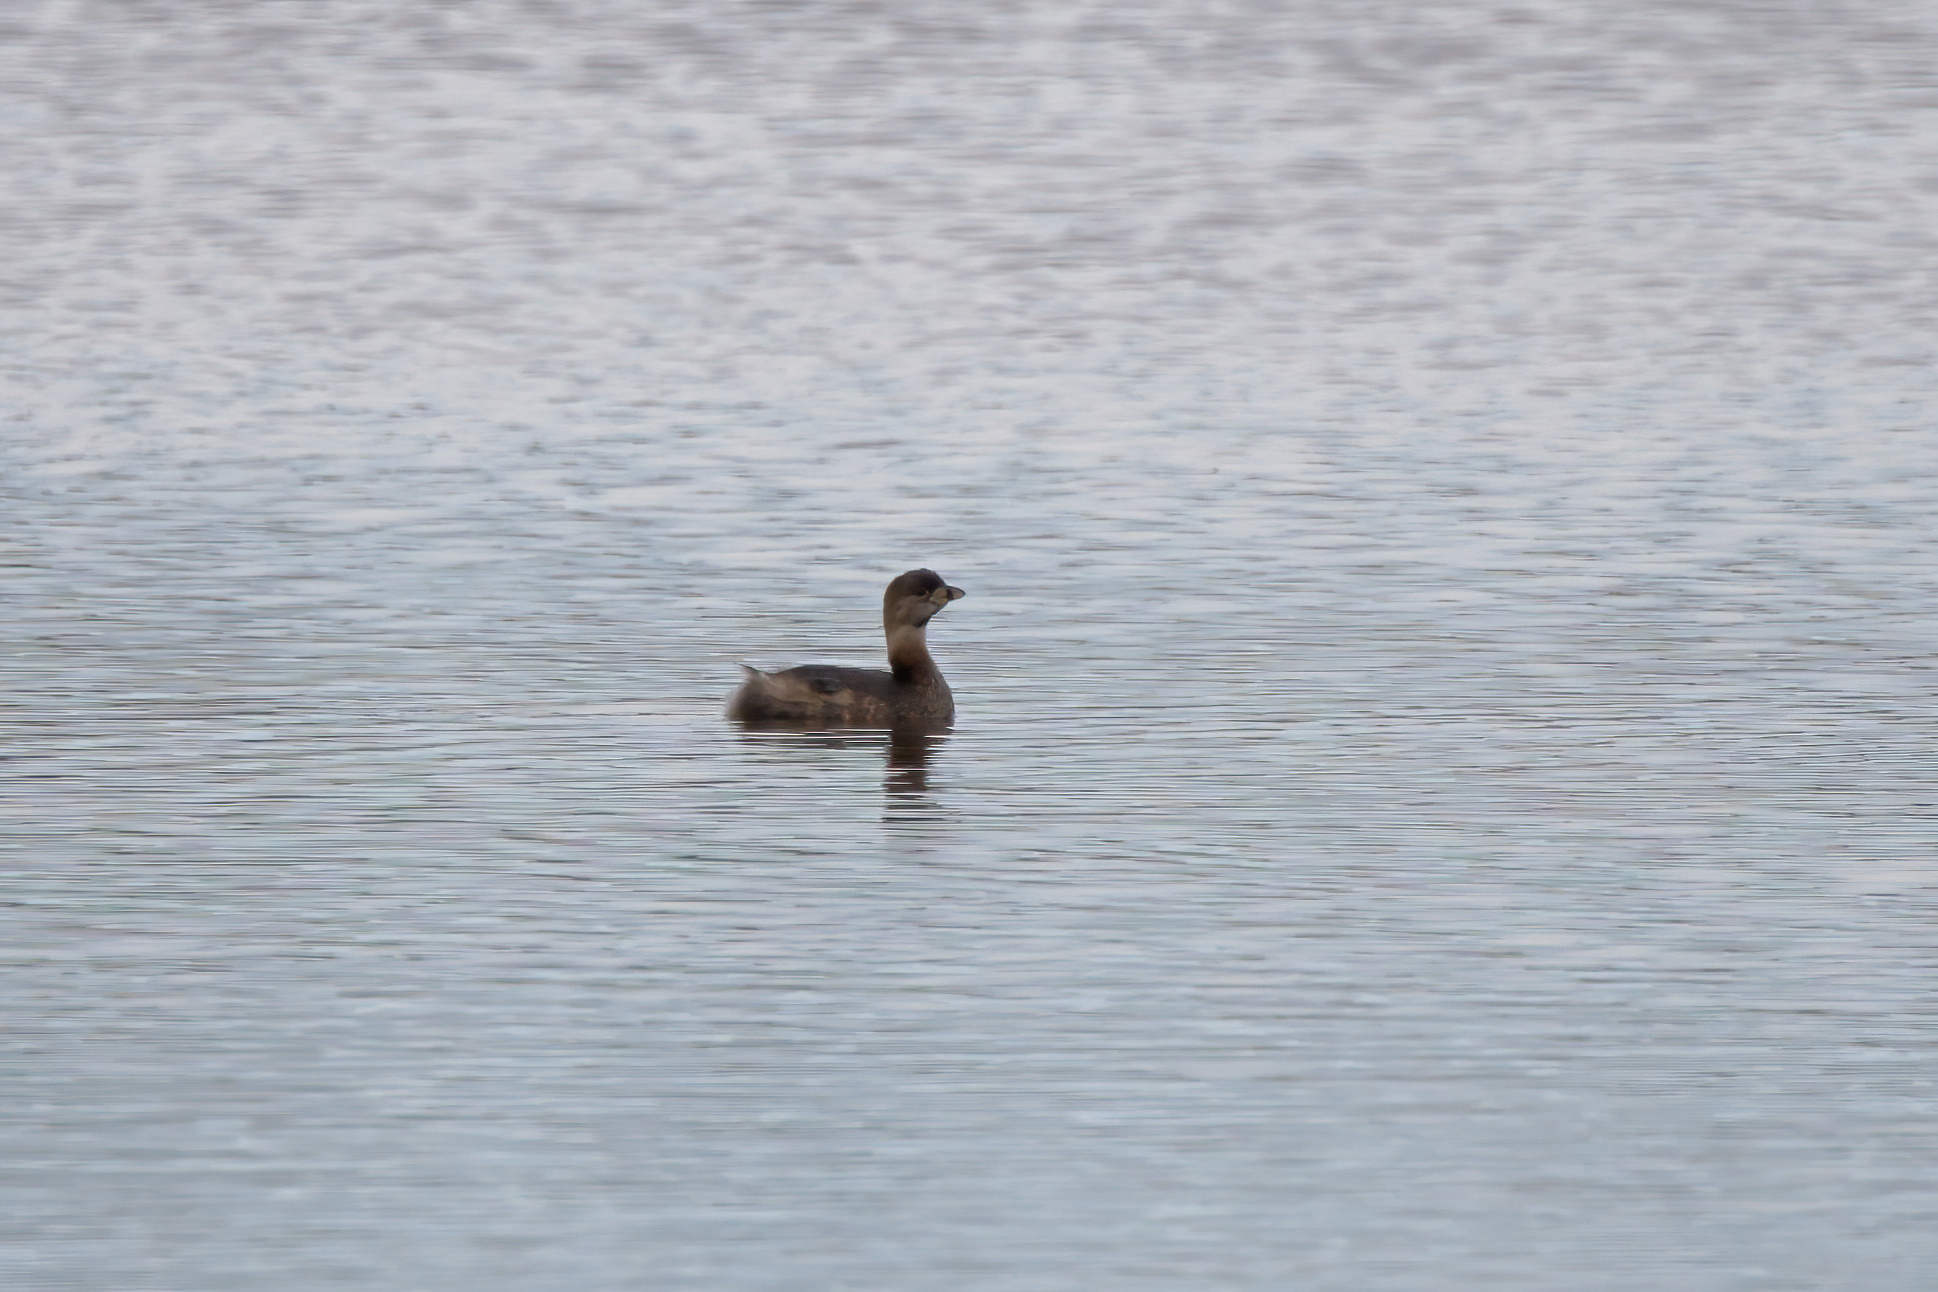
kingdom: Animalia
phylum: Chordata
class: Aves
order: Podicipediformes
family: Podicipedidae
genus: Podilymbus
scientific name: Podilymbus podiceps
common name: Pied-billed grebe
